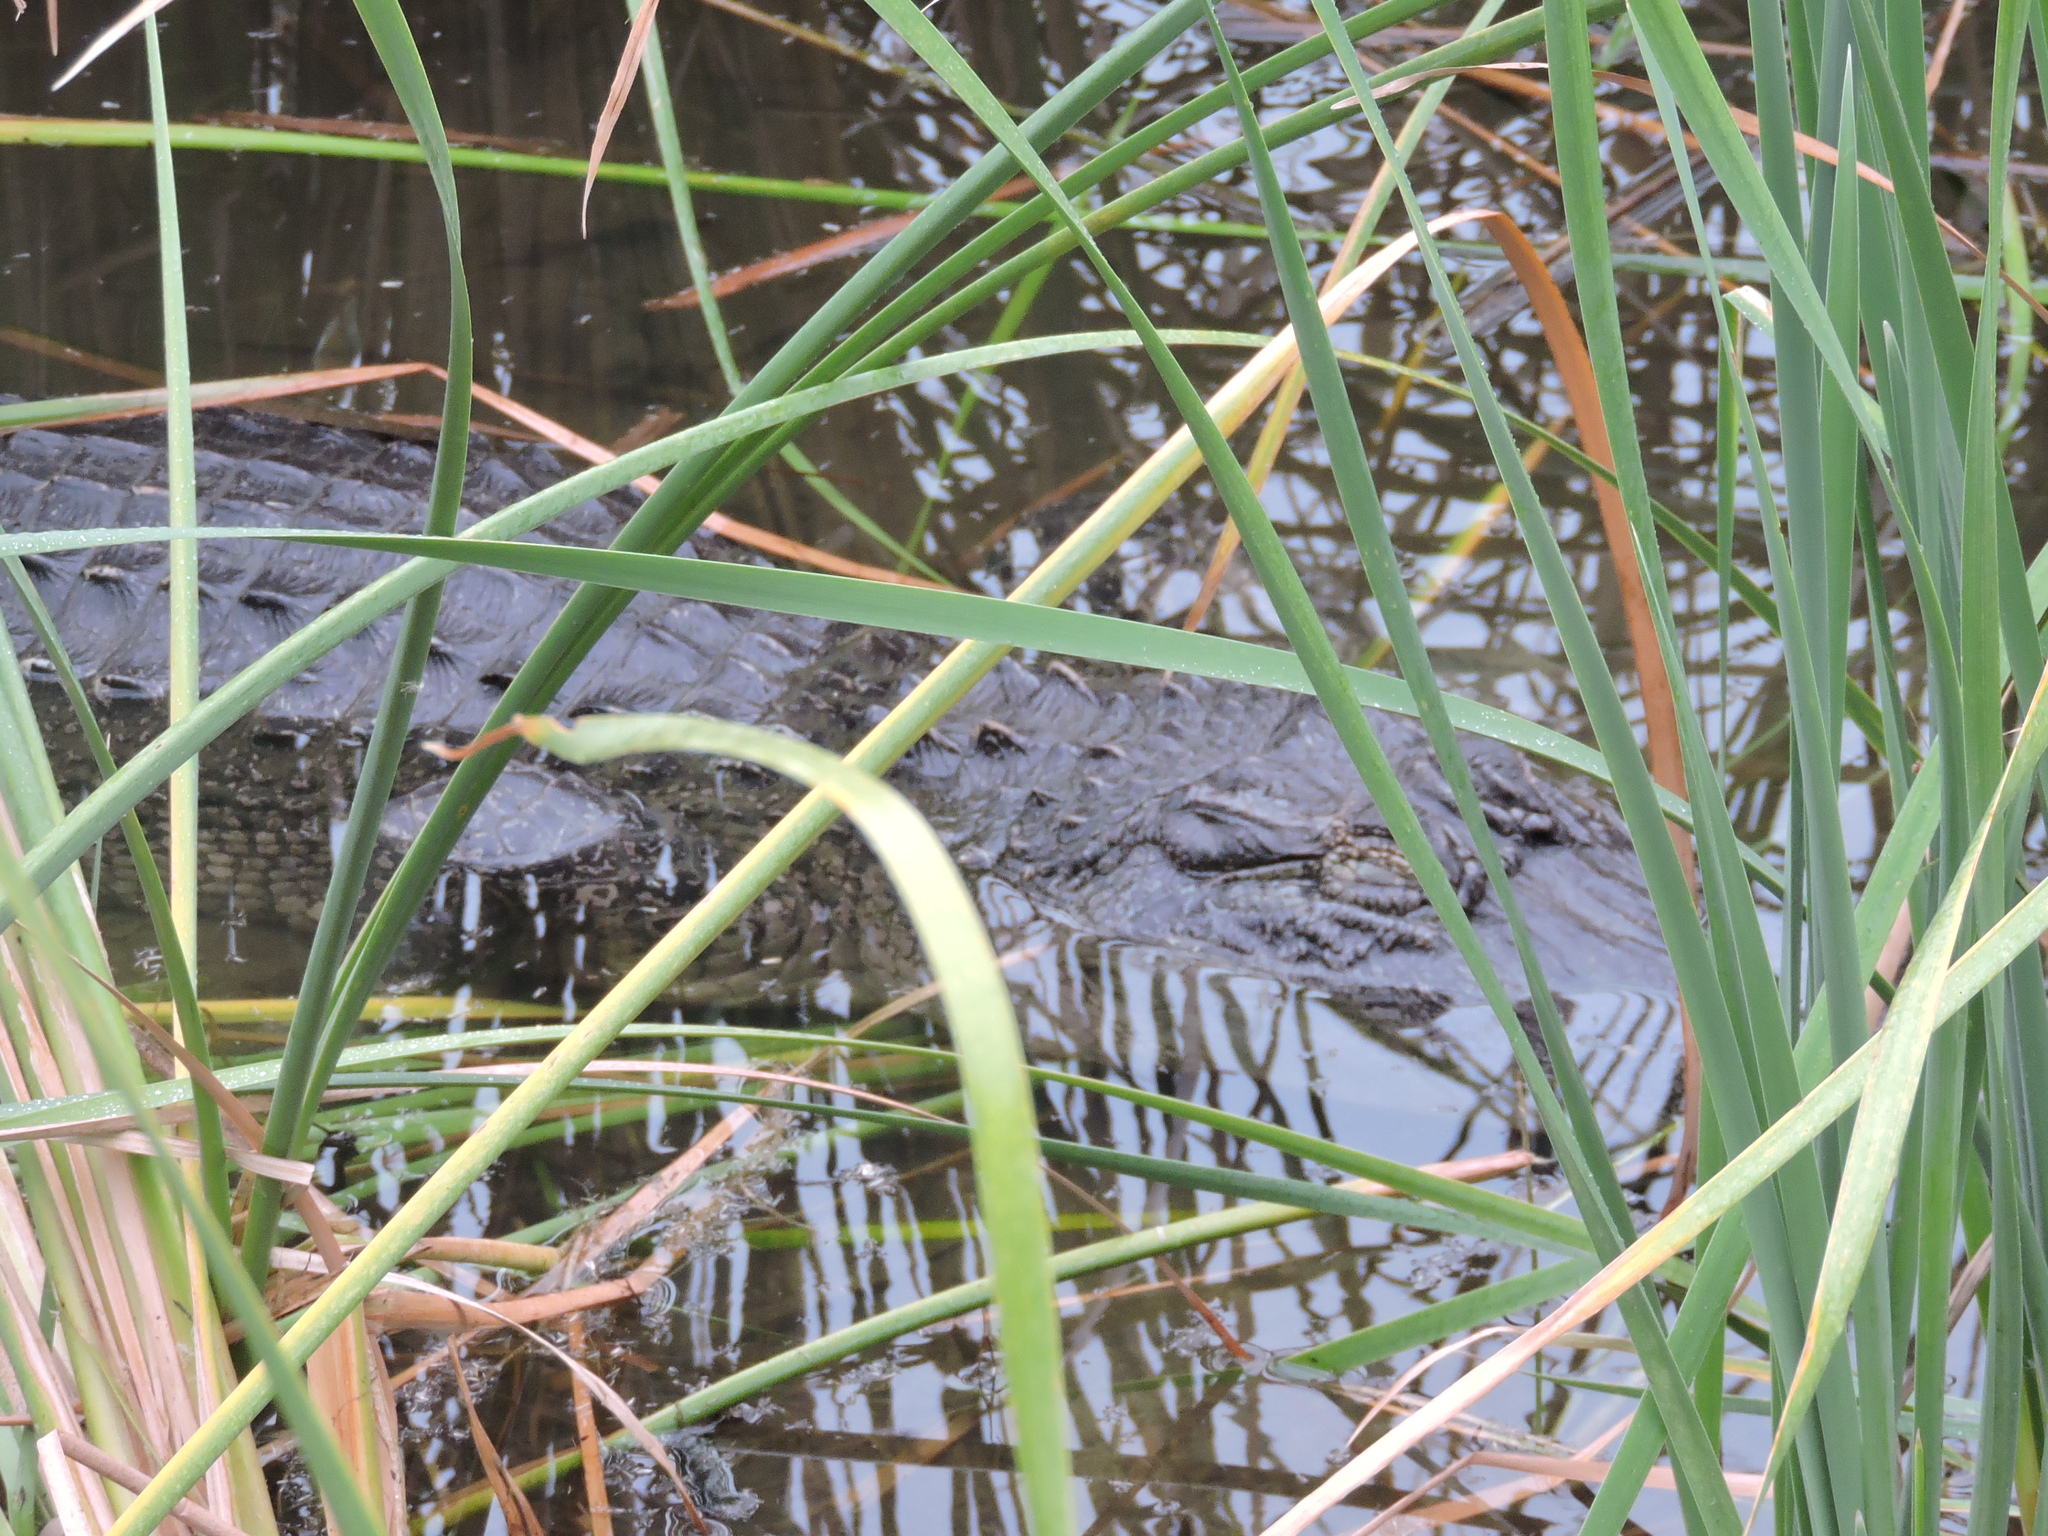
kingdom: Animalia
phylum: Chordata
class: Crocodylia
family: Alligatoridae
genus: Alligator
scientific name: Alligator mississippiensis
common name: American alligator
